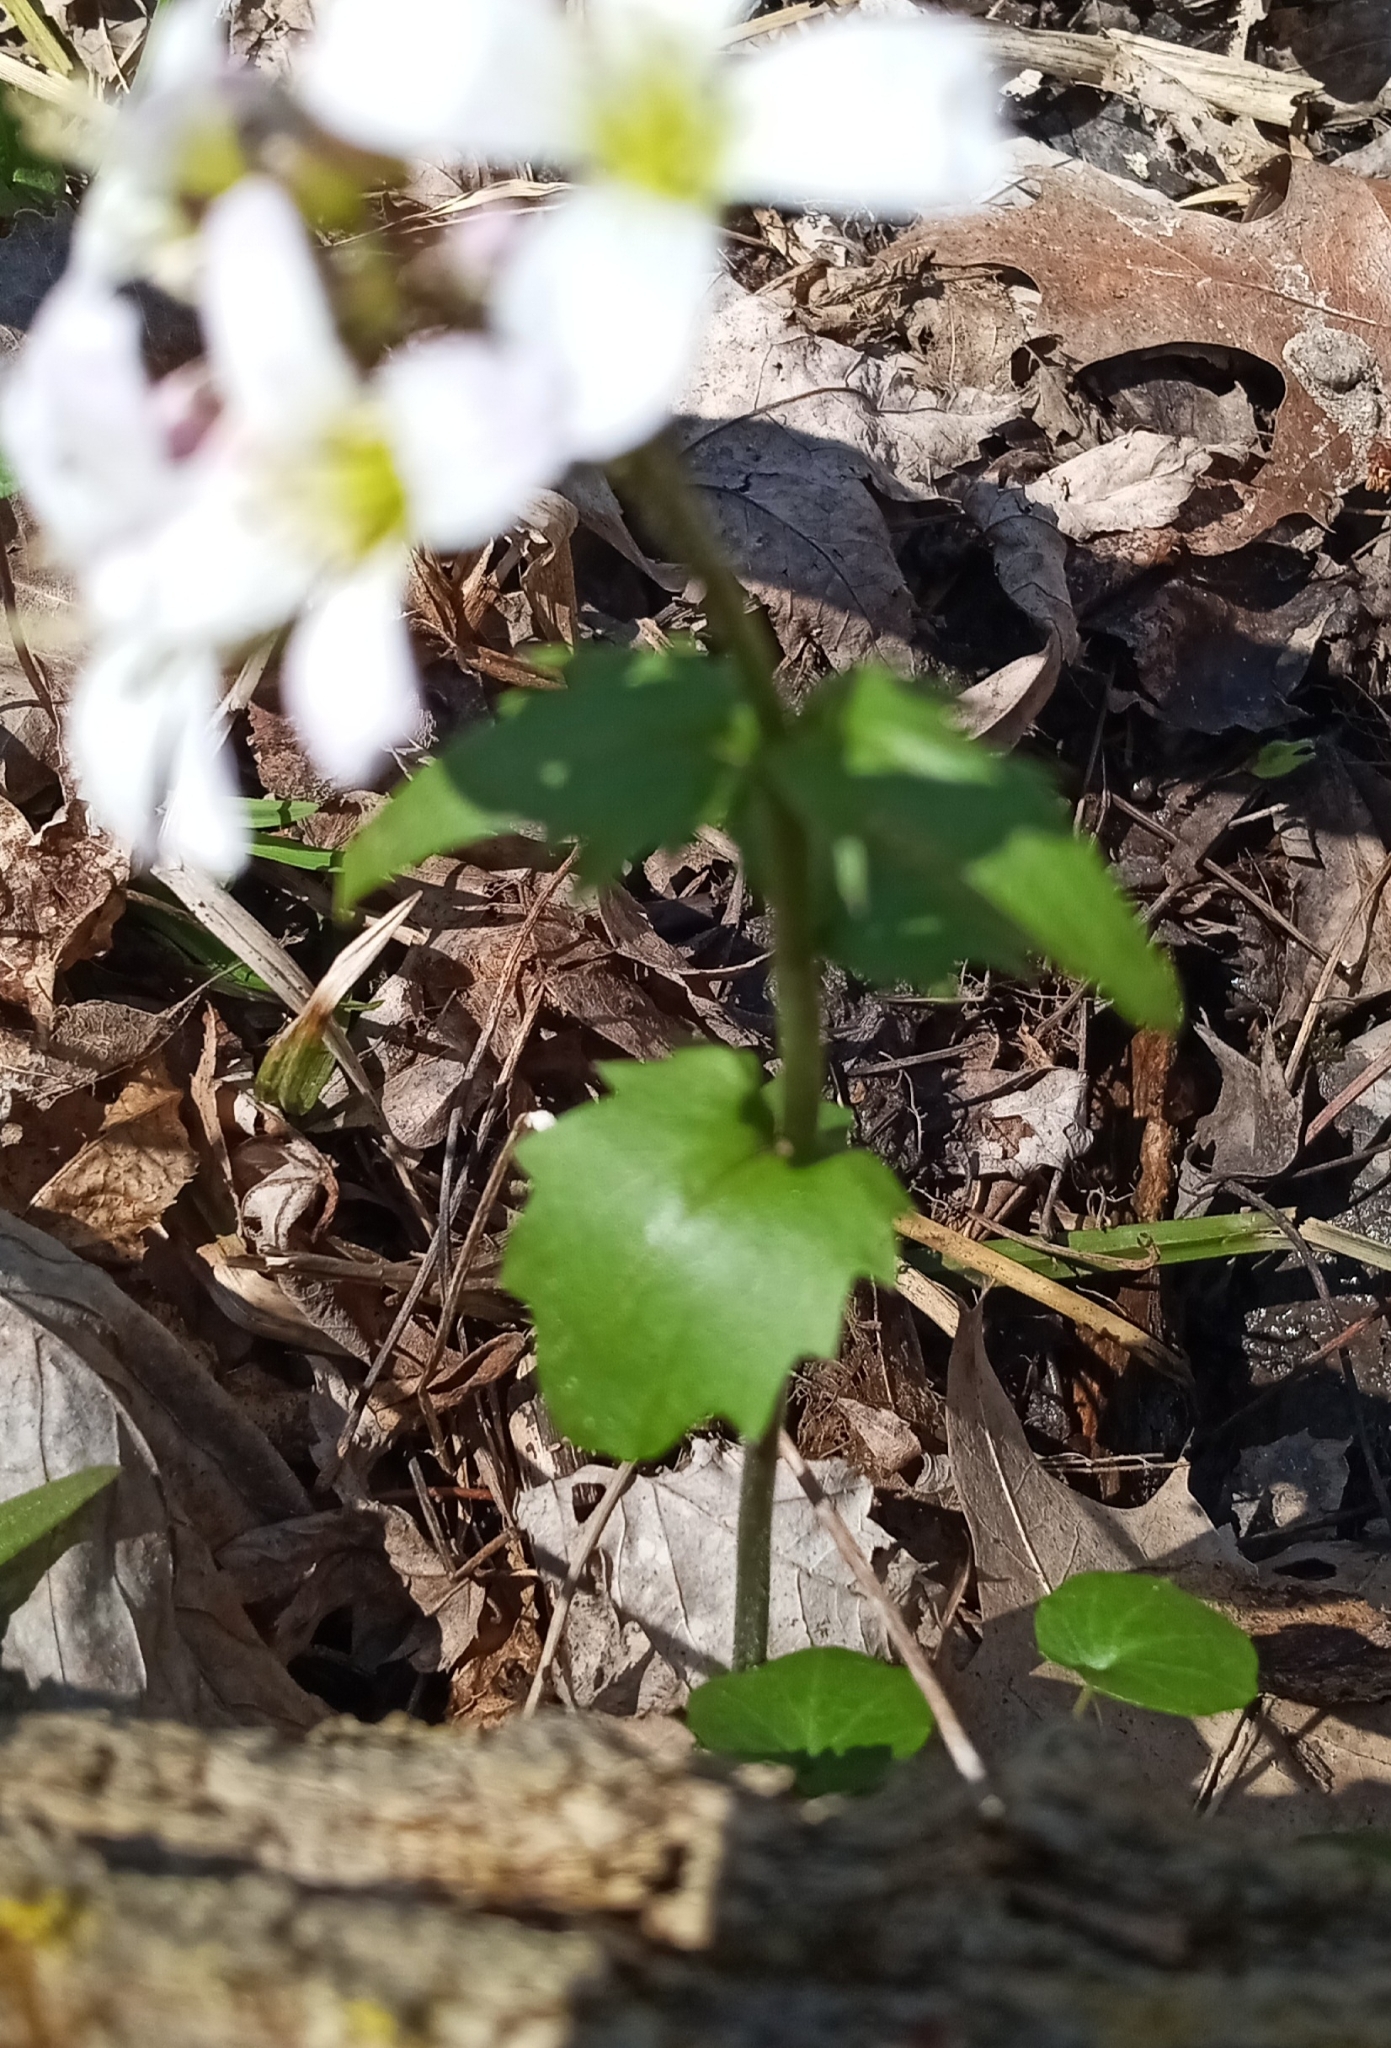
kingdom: Plantae
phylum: Tracheophyta
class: Magnoliopsida
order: Brassicales
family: Brassicaceae
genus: Cardamine
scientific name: Cardamine douglassii
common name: Purple cress
